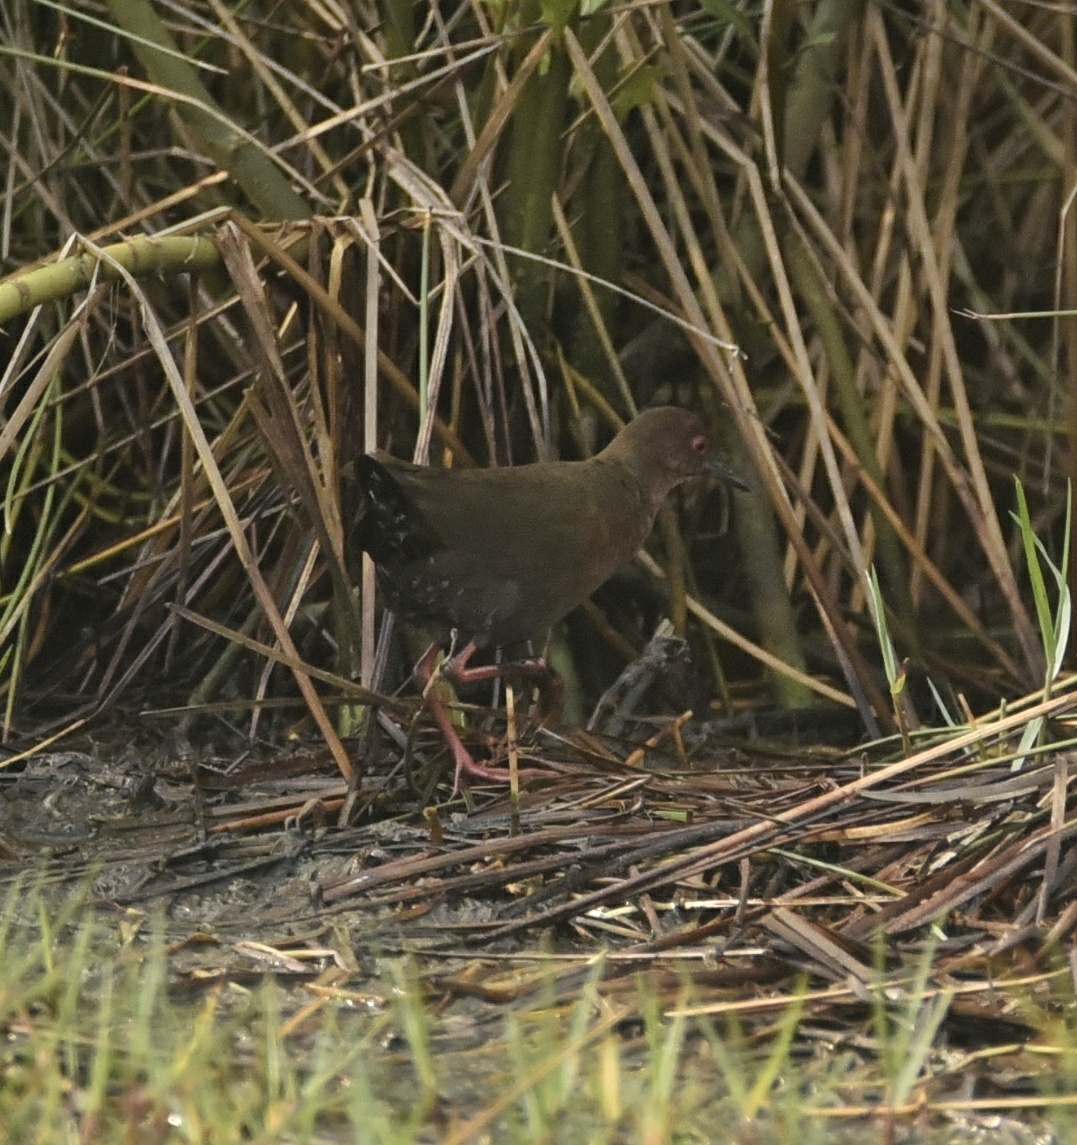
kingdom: Animalia
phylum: Chordata
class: Aves
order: Gruiformes
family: Rallidae
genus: Porzana
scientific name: Porzana fusca
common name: Ruddy-breasted crake
